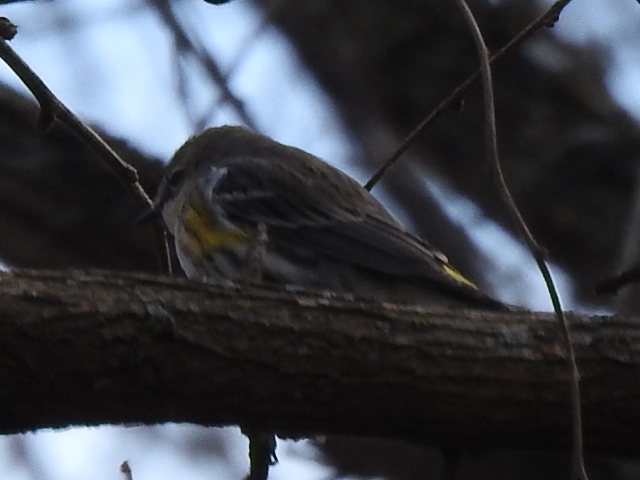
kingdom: Animalia
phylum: Chordata
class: Aves
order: Passeriformes
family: Parulidae
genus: Setophaga
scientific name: Setophaga coronata
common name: Myrtle warbler
